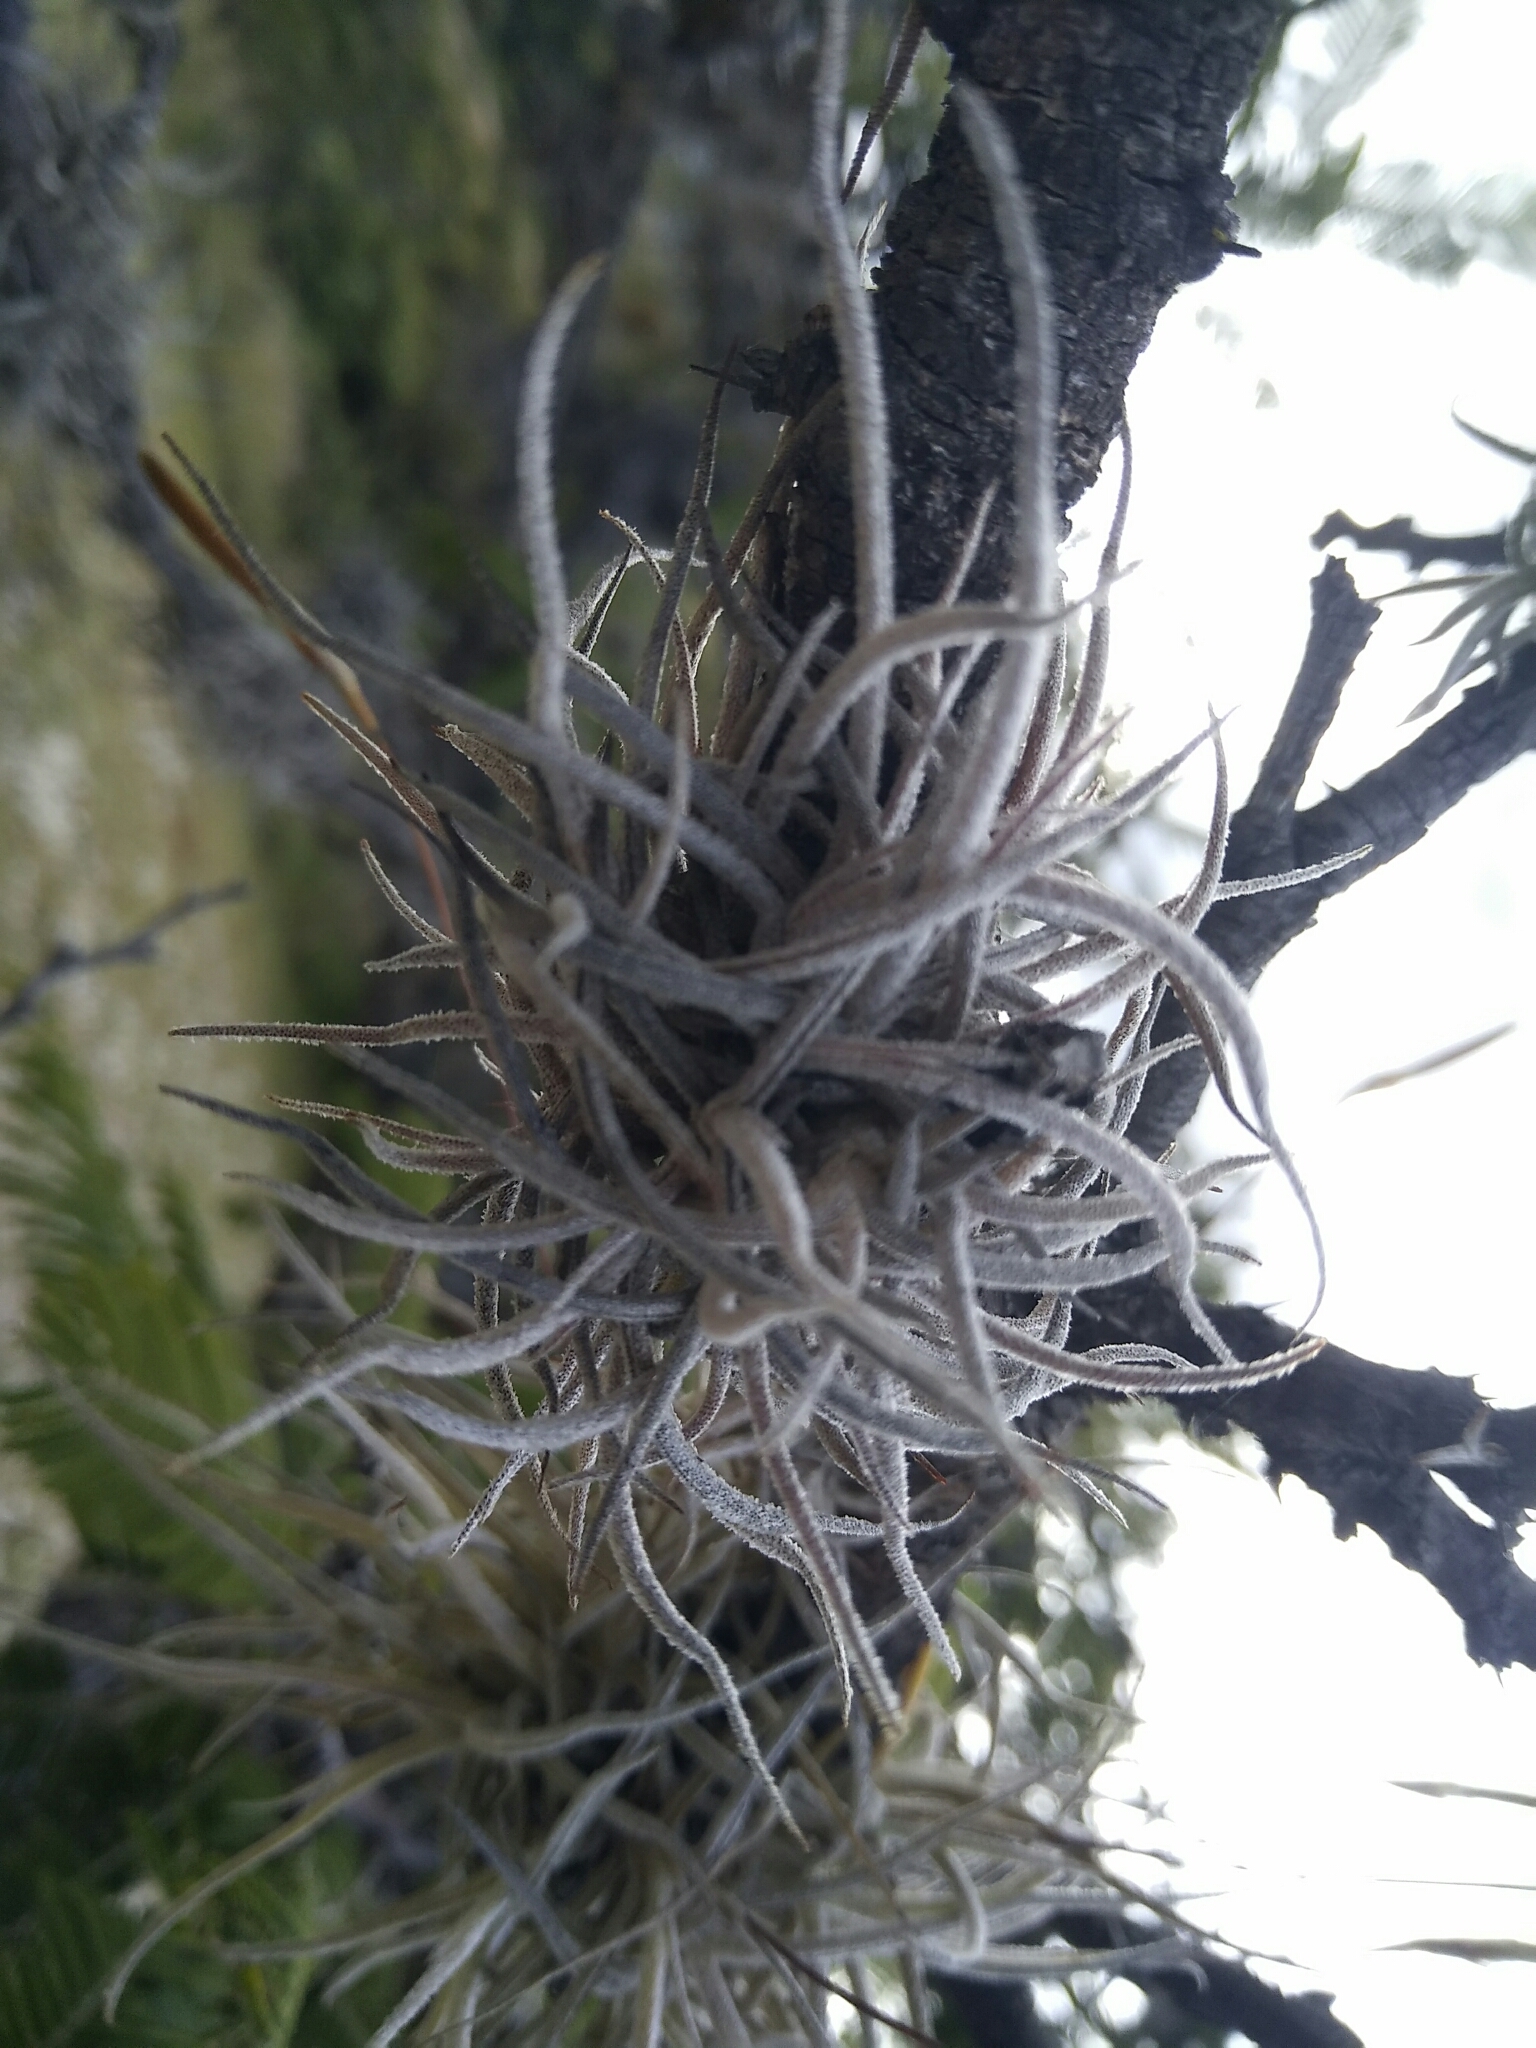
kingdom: Plantae
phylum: Tracheophyta
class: Liliopsida
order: Poales
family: Bromeliaceae
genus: Tillandsia
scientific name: Tillandsia recurvata
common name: Small ballmoss
